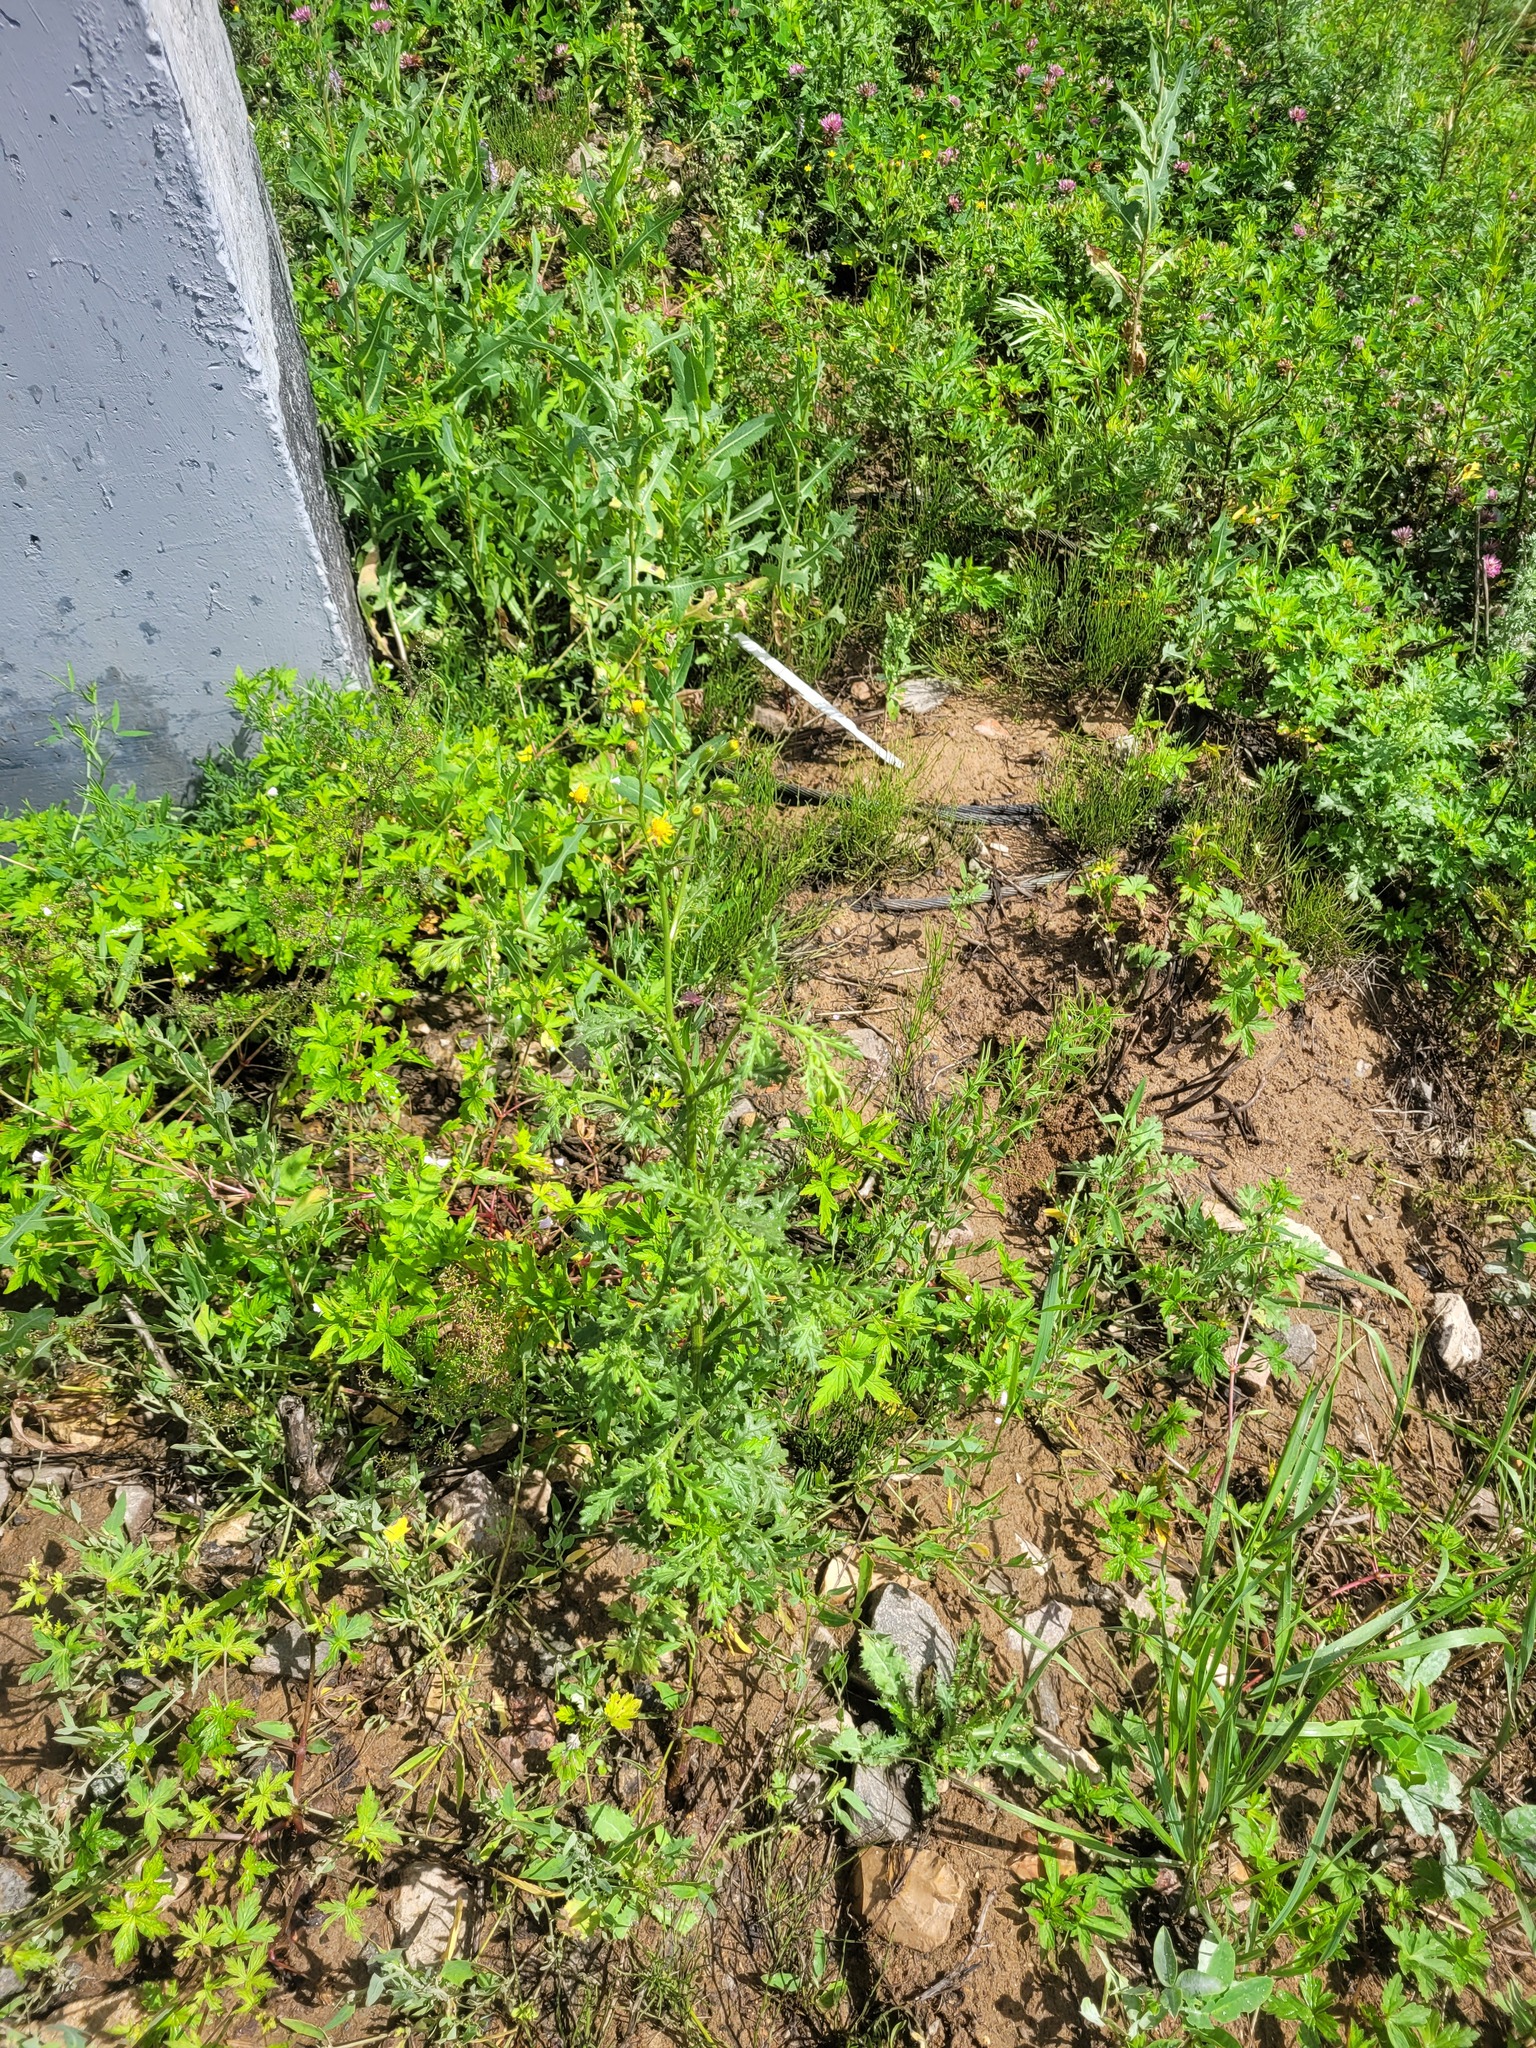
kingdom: Plantae
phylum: Tracheophyta
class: Magnoliopsida
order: Asterales
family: Asteraceae
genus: Senecio
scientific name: Senecio viscosus
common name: Sticky groundsel
